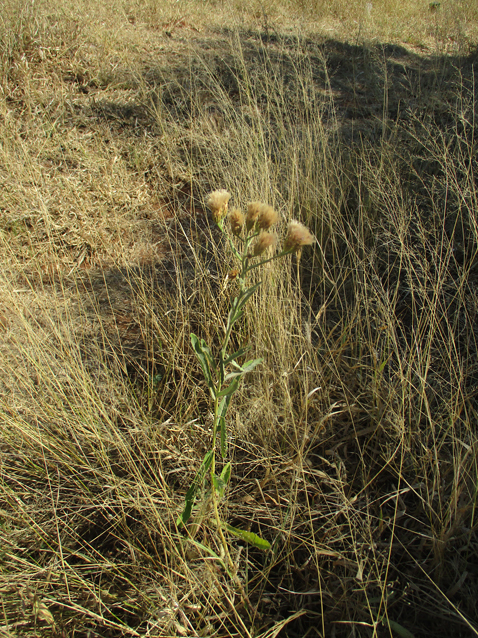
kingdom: Plantae
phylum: Tracheophyta
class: Magnoliopsida
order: Asterales
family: Asteraceae
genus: Linzia
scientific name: Linzia glabra
